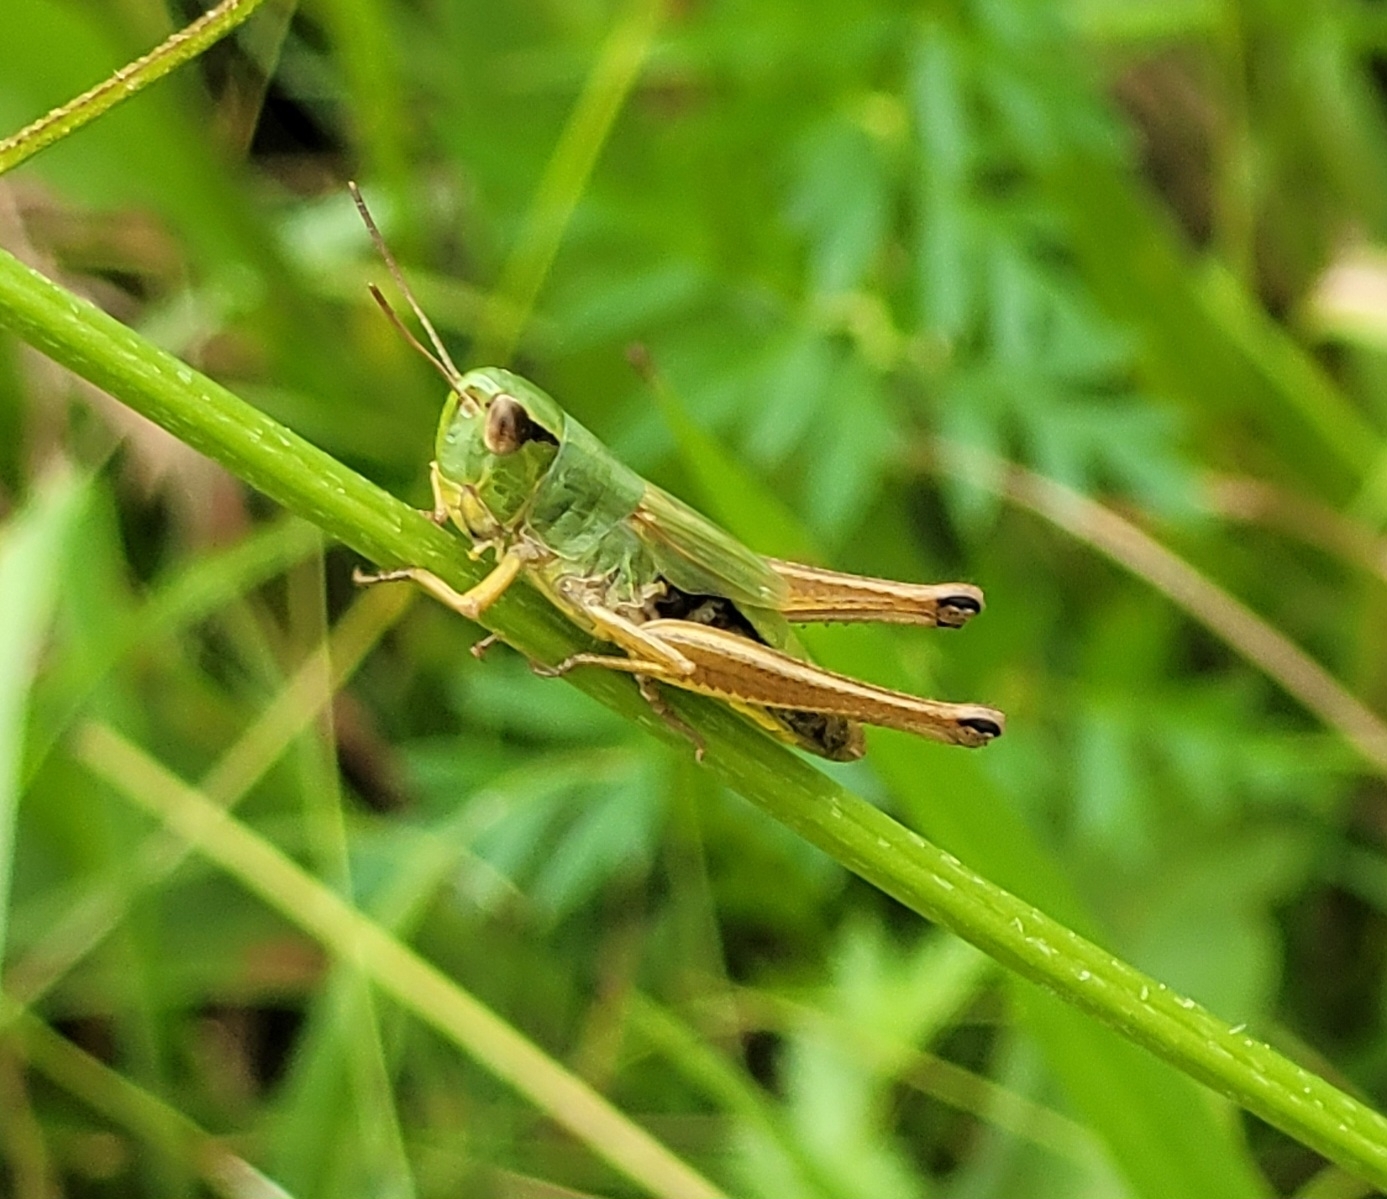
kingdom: Animalia
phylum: Arthropoda
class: Insecta
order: Orthoptera
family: Acrididae
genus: Pseudochorthippus
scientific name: Pseudochorthippus parallelus
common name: Meadow grasshopper
